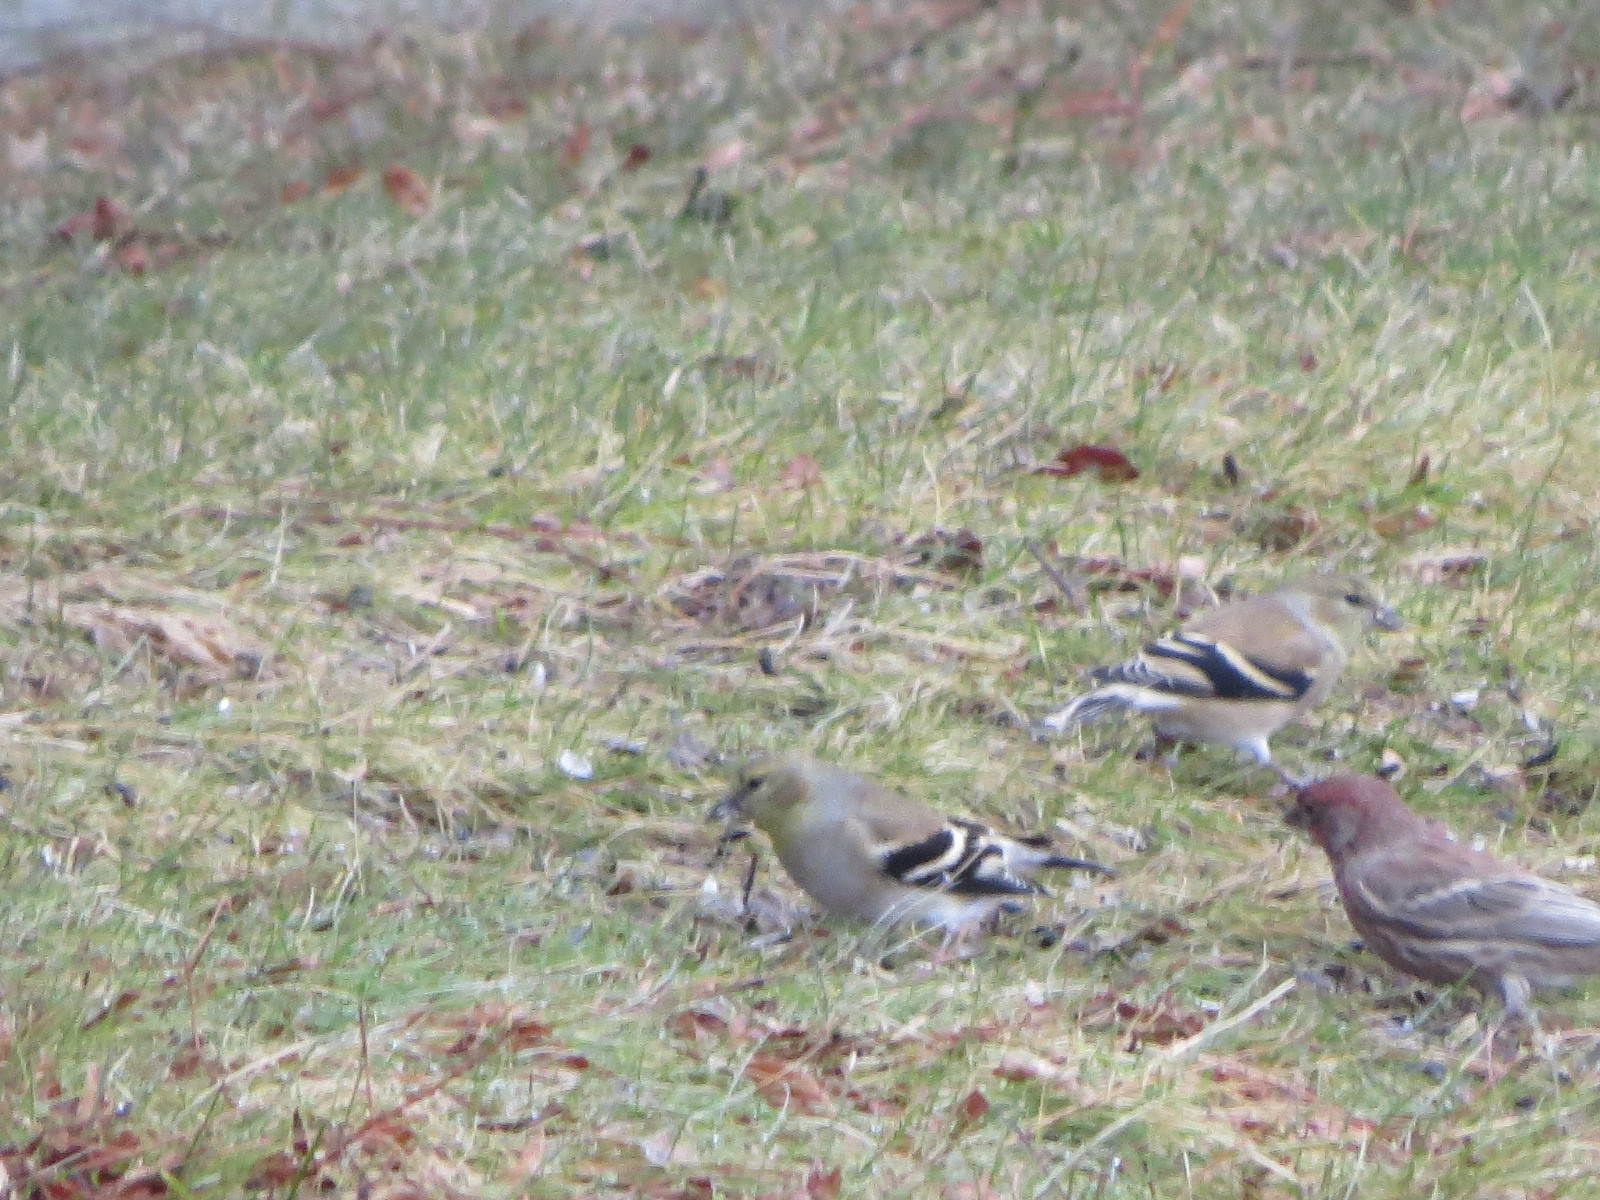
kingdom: Animalia
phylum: Chordata
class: Aves
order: Passeriformes
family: Fringillidae
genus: Spinus
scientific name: Spinus tristis
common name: American goldfinch
